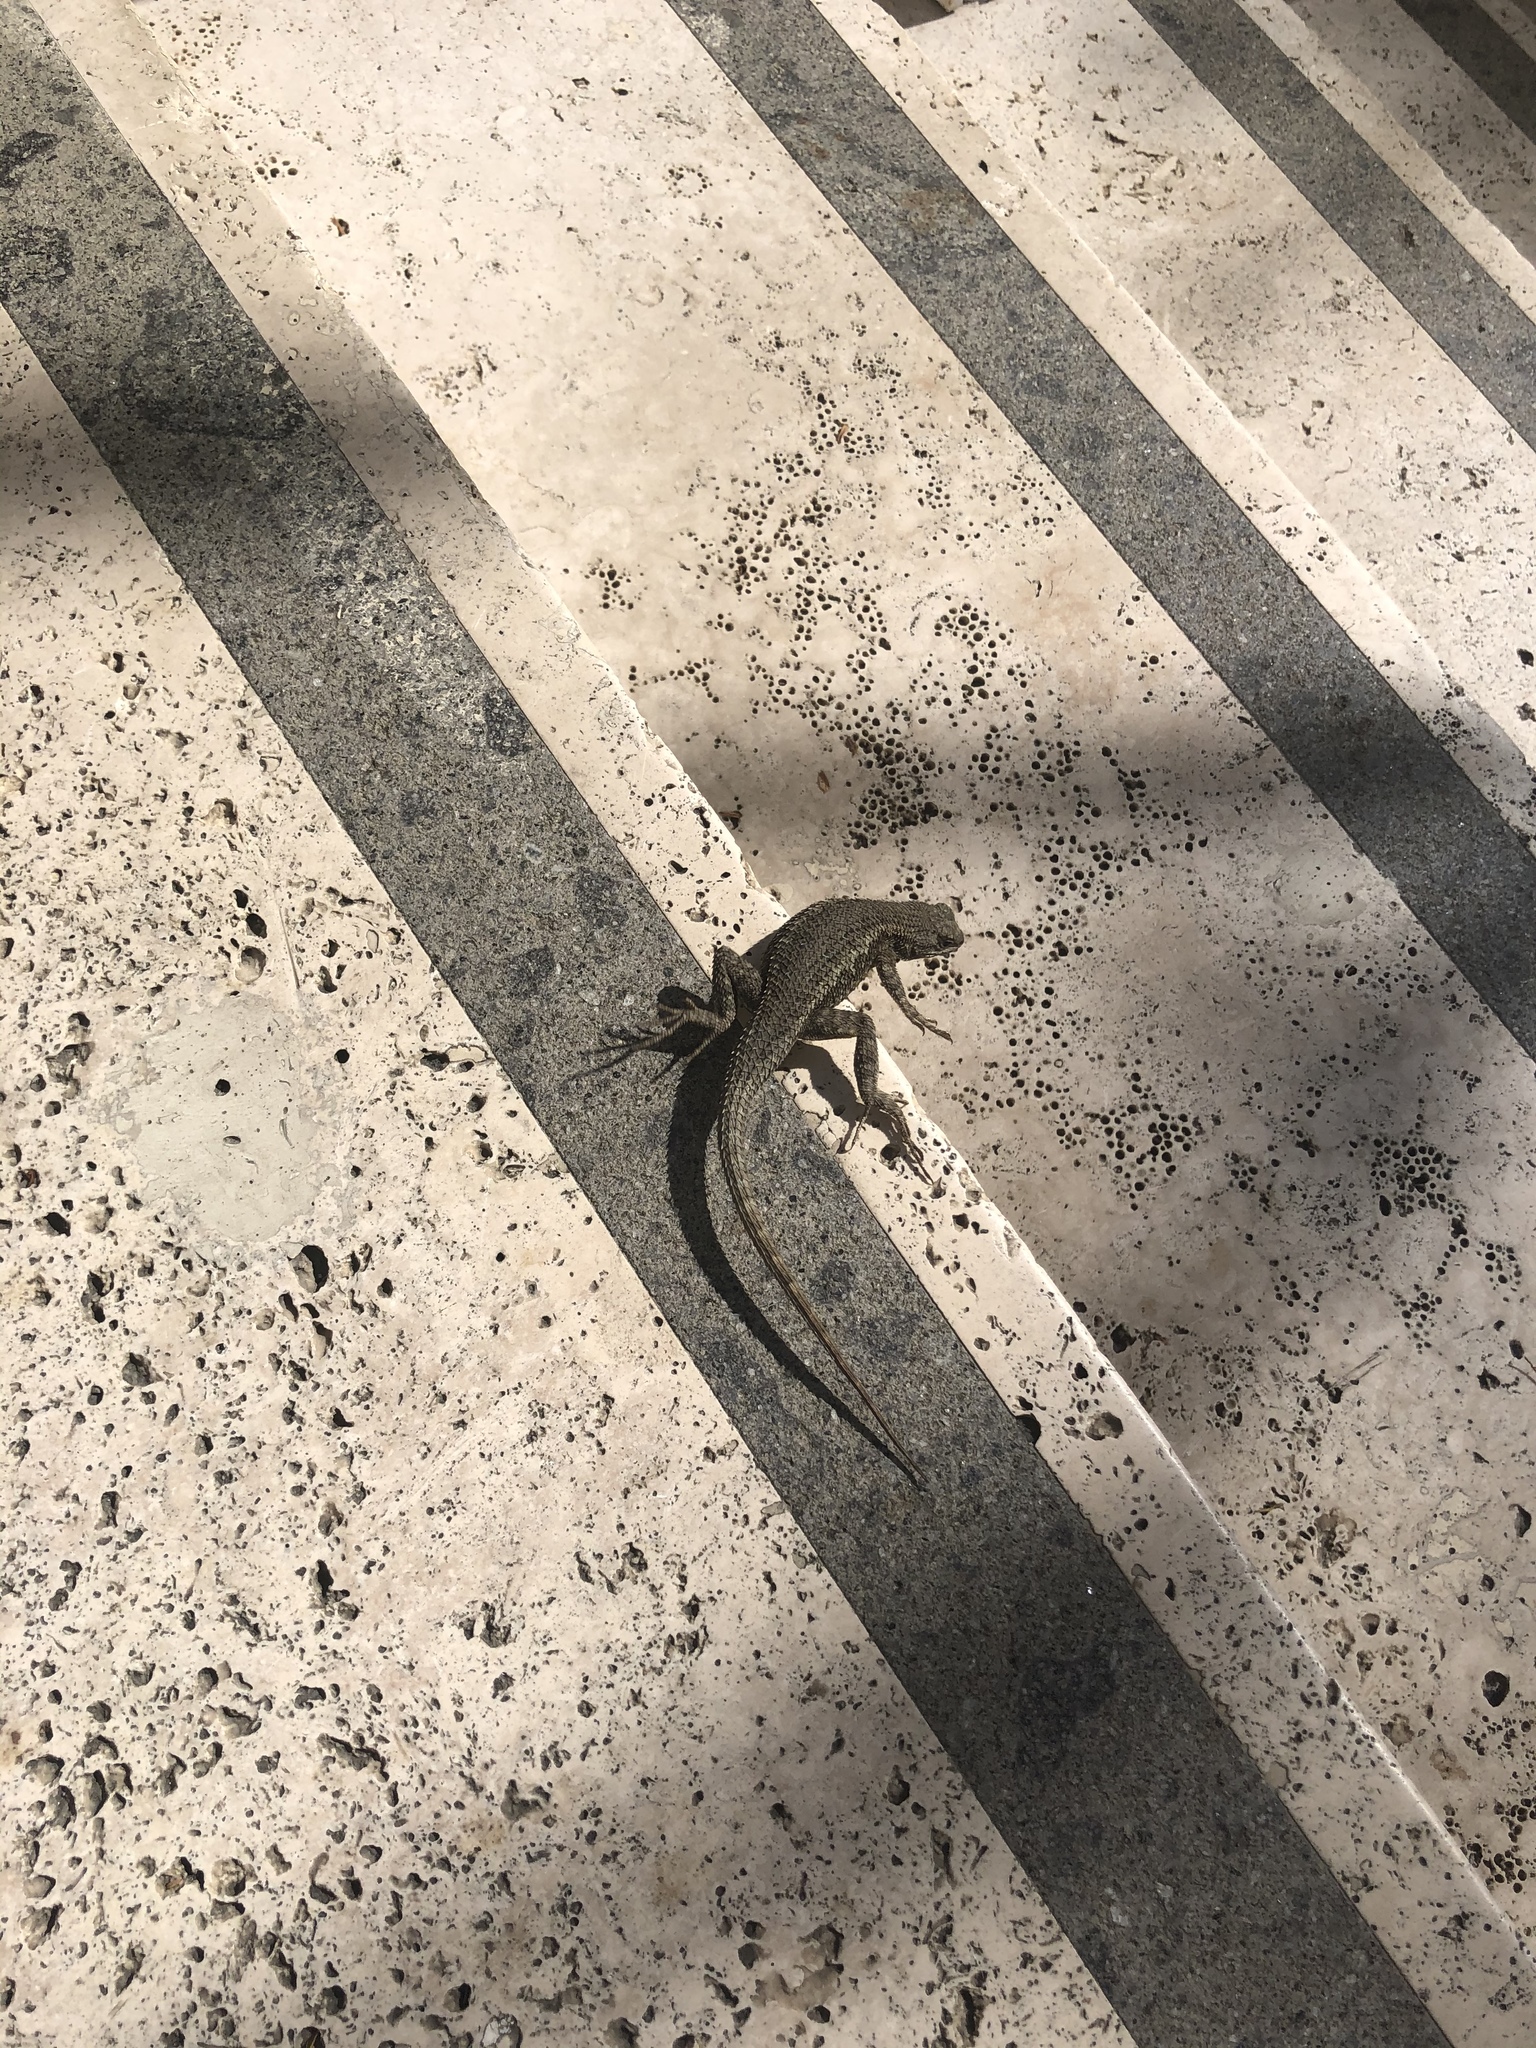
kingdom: Animalia
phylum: Chordata
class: Squamata
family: Phrynosomatidae
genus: Sceloporus
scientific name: Sceloporus occidentalis
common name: Western fence lizard
